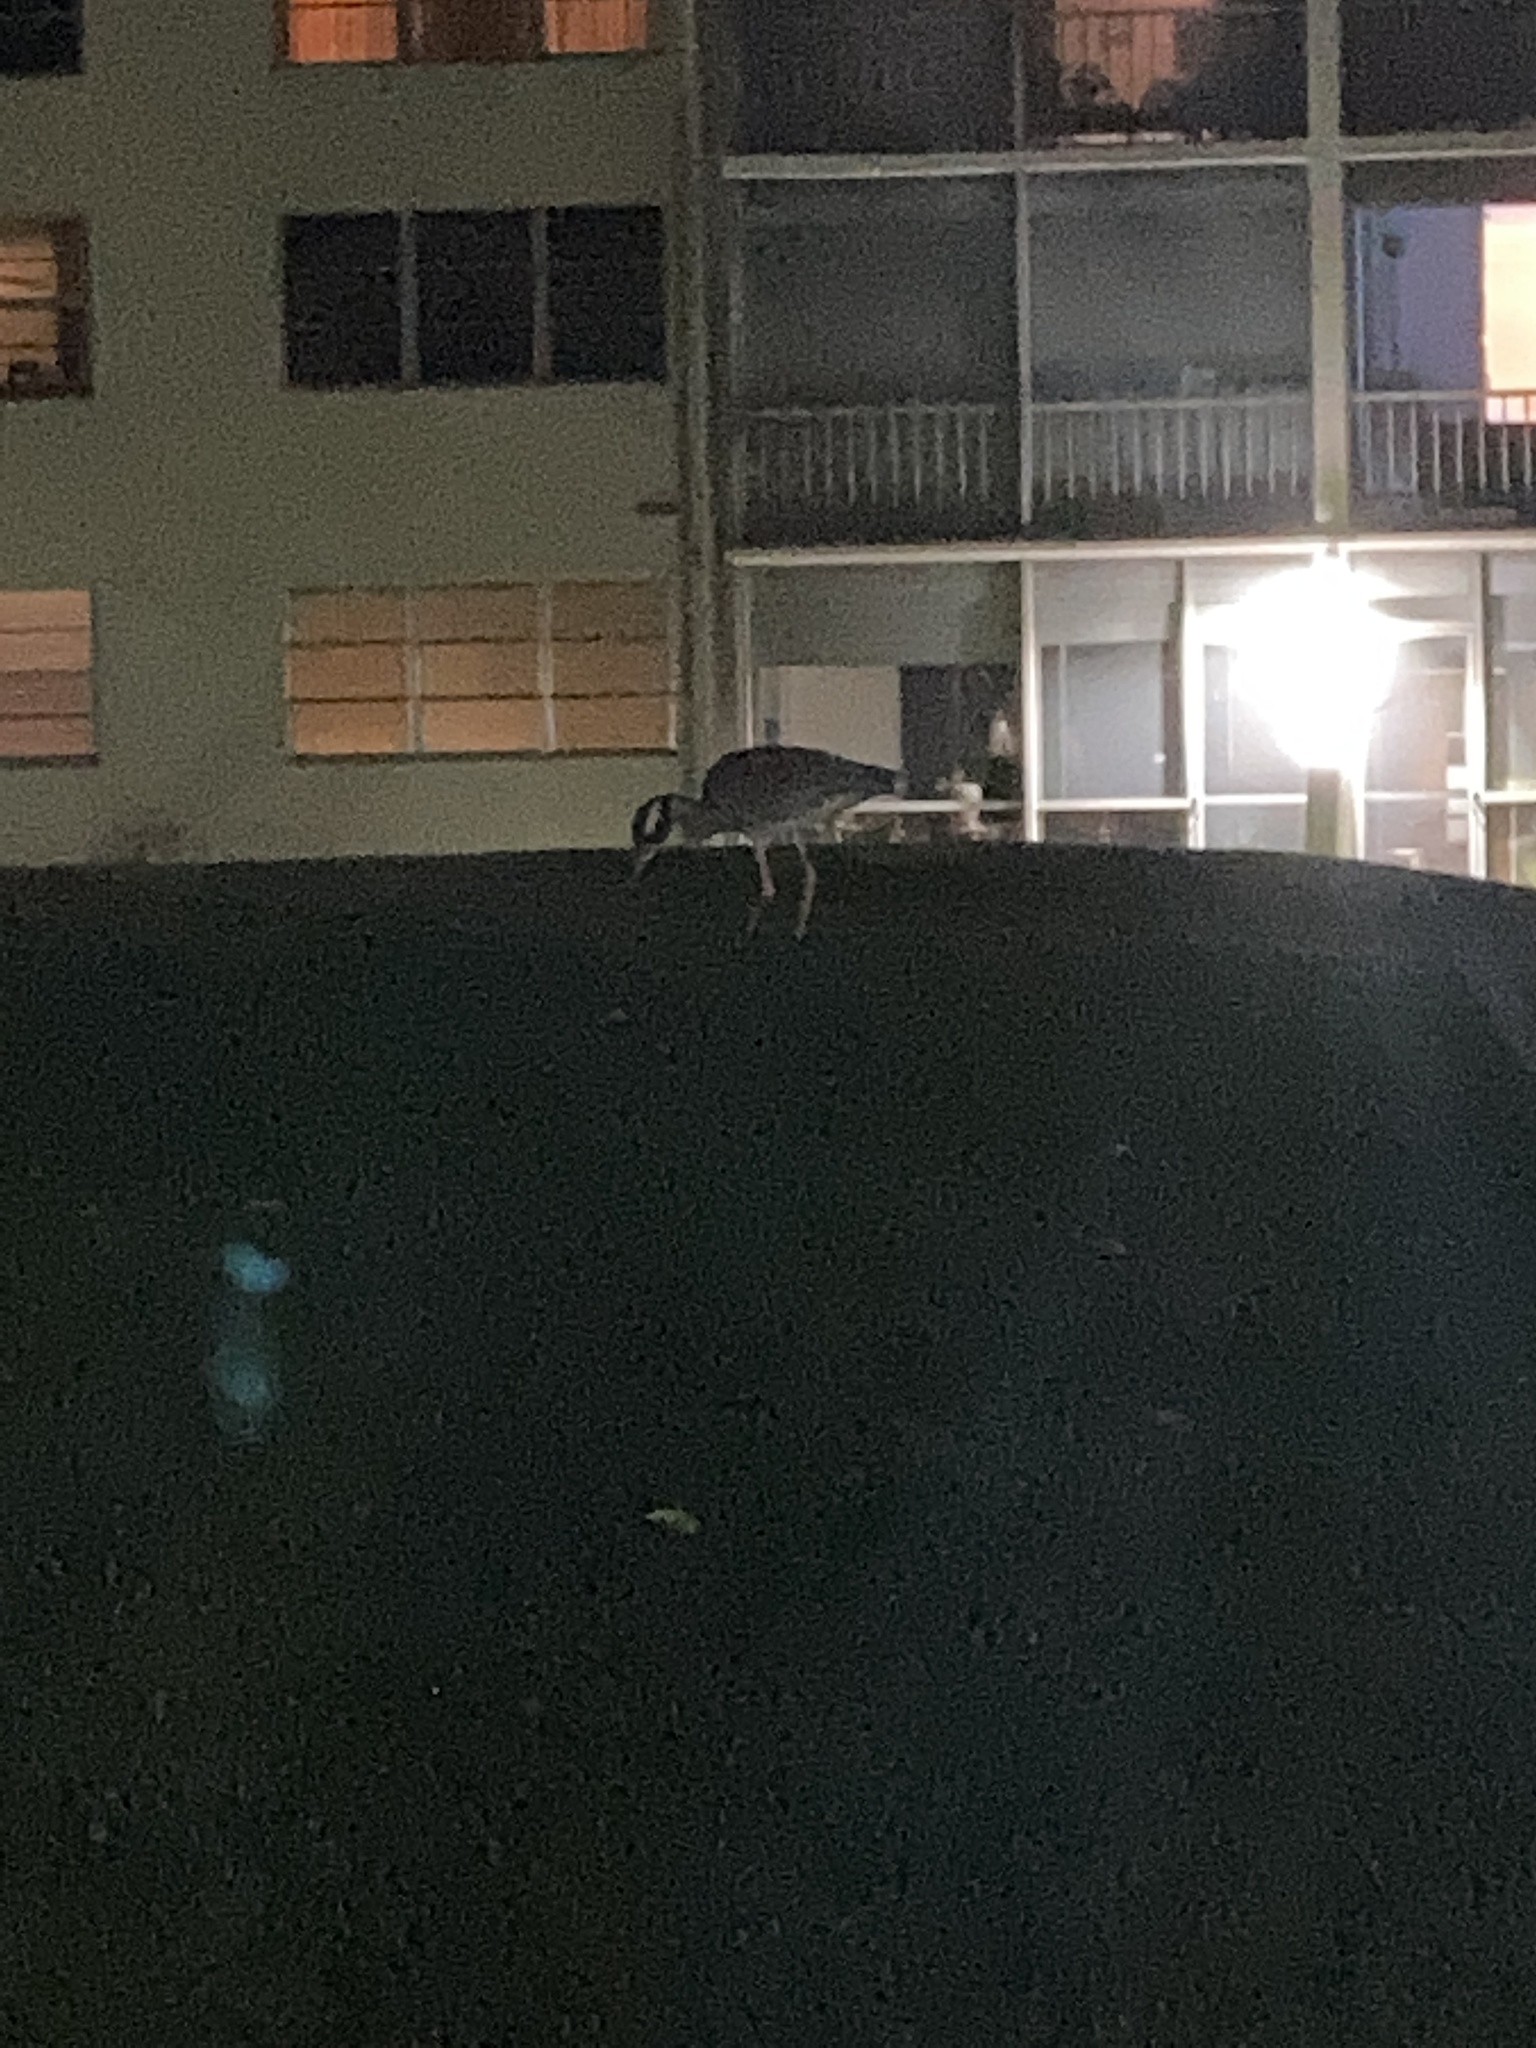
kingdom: Animalia
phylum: Chordata
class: Aves
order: Pelecaniformes
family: Ardeidae
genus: Nyctanassa
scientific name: Nyctanassa violacea
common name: Yellow-crowned night heron
